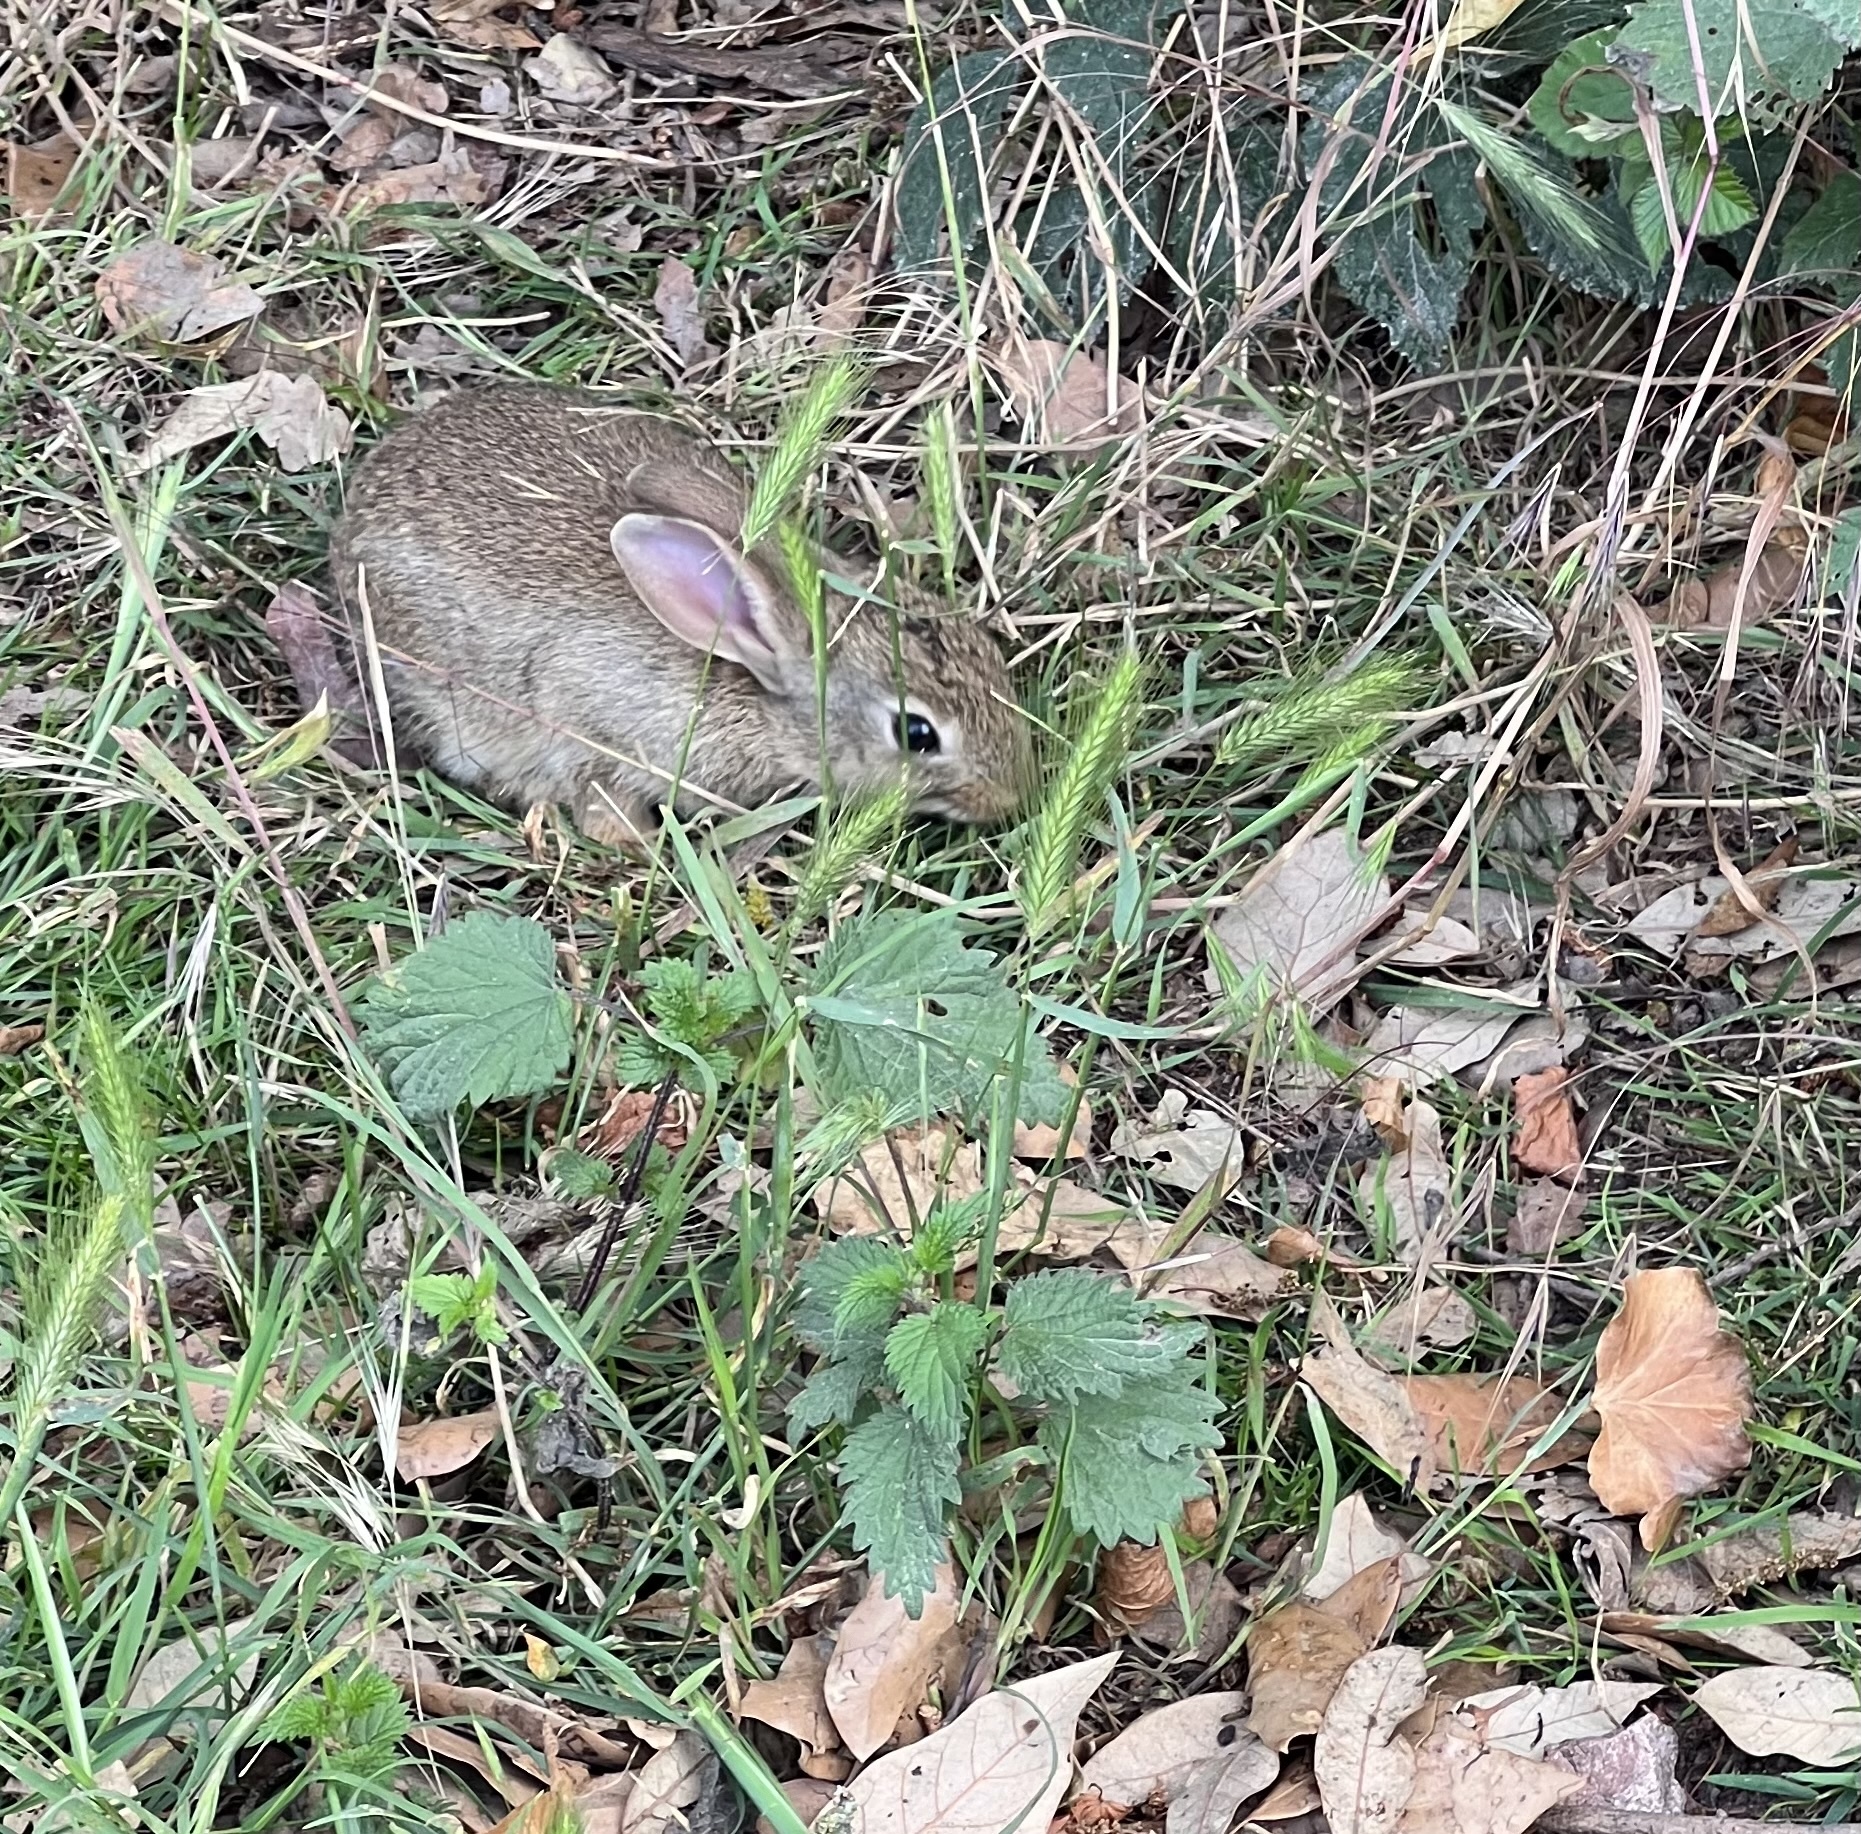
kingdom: Animalia
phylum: Chordata
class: Mammalia
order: Lagomorpha
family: Leporidae
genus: Oryctolagus
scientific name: Oryctolagus cuniculus
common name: European rabbit
